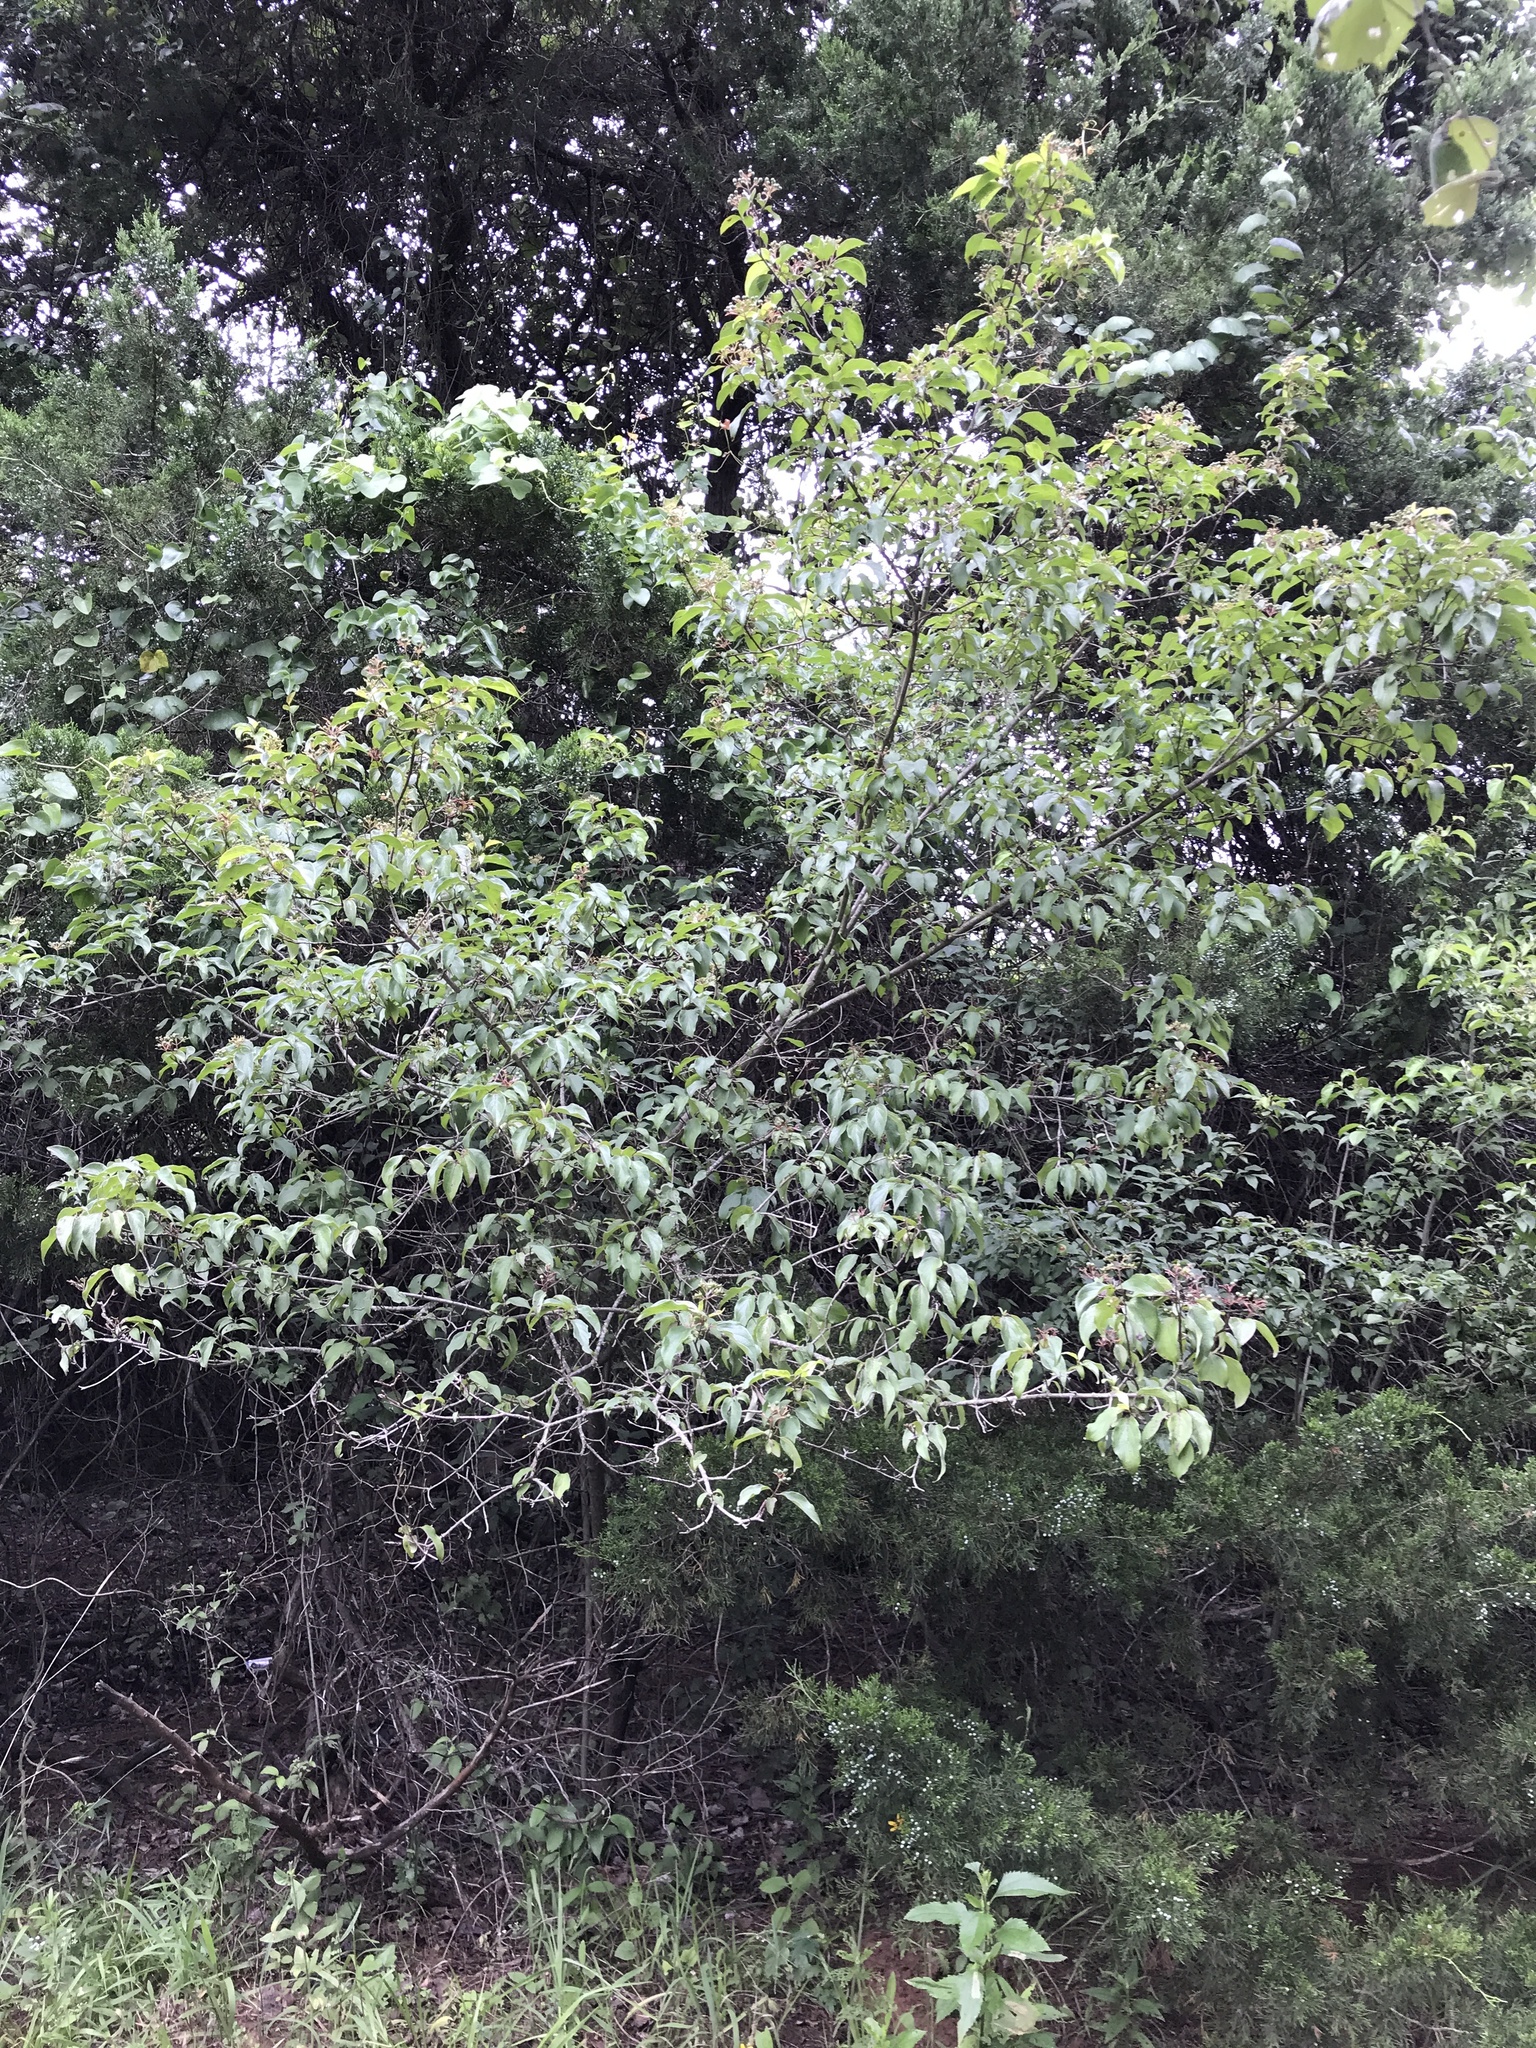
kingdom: Plantae
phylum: Tracheophyta
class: Magnoliopsida
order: Cornales
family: Cornaceae
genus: Cornus
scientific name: Cornus drummondii
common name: Rough-leaf dogwood
